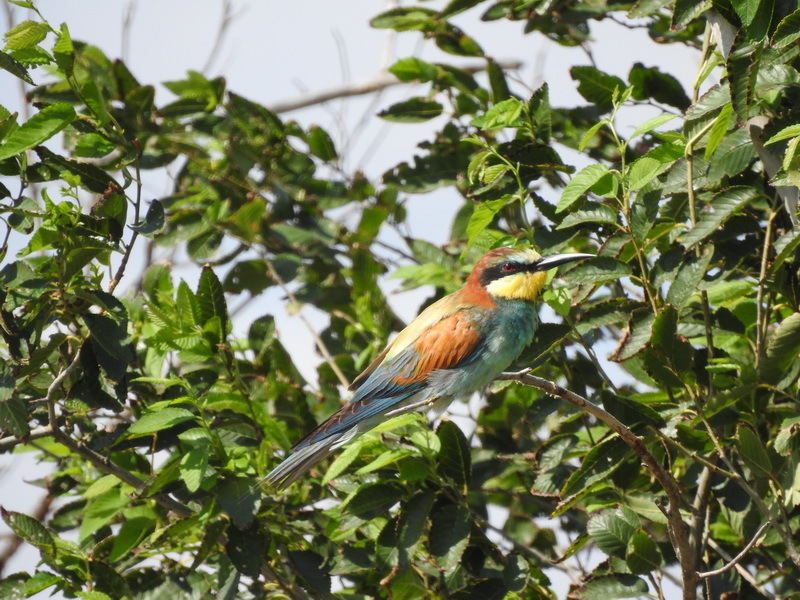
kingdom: Animalia
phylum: Chordata
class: Aves
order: Coraciiformes
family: Meropidae
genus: Merops
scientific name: Merops apiaster
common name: European bee-eater
